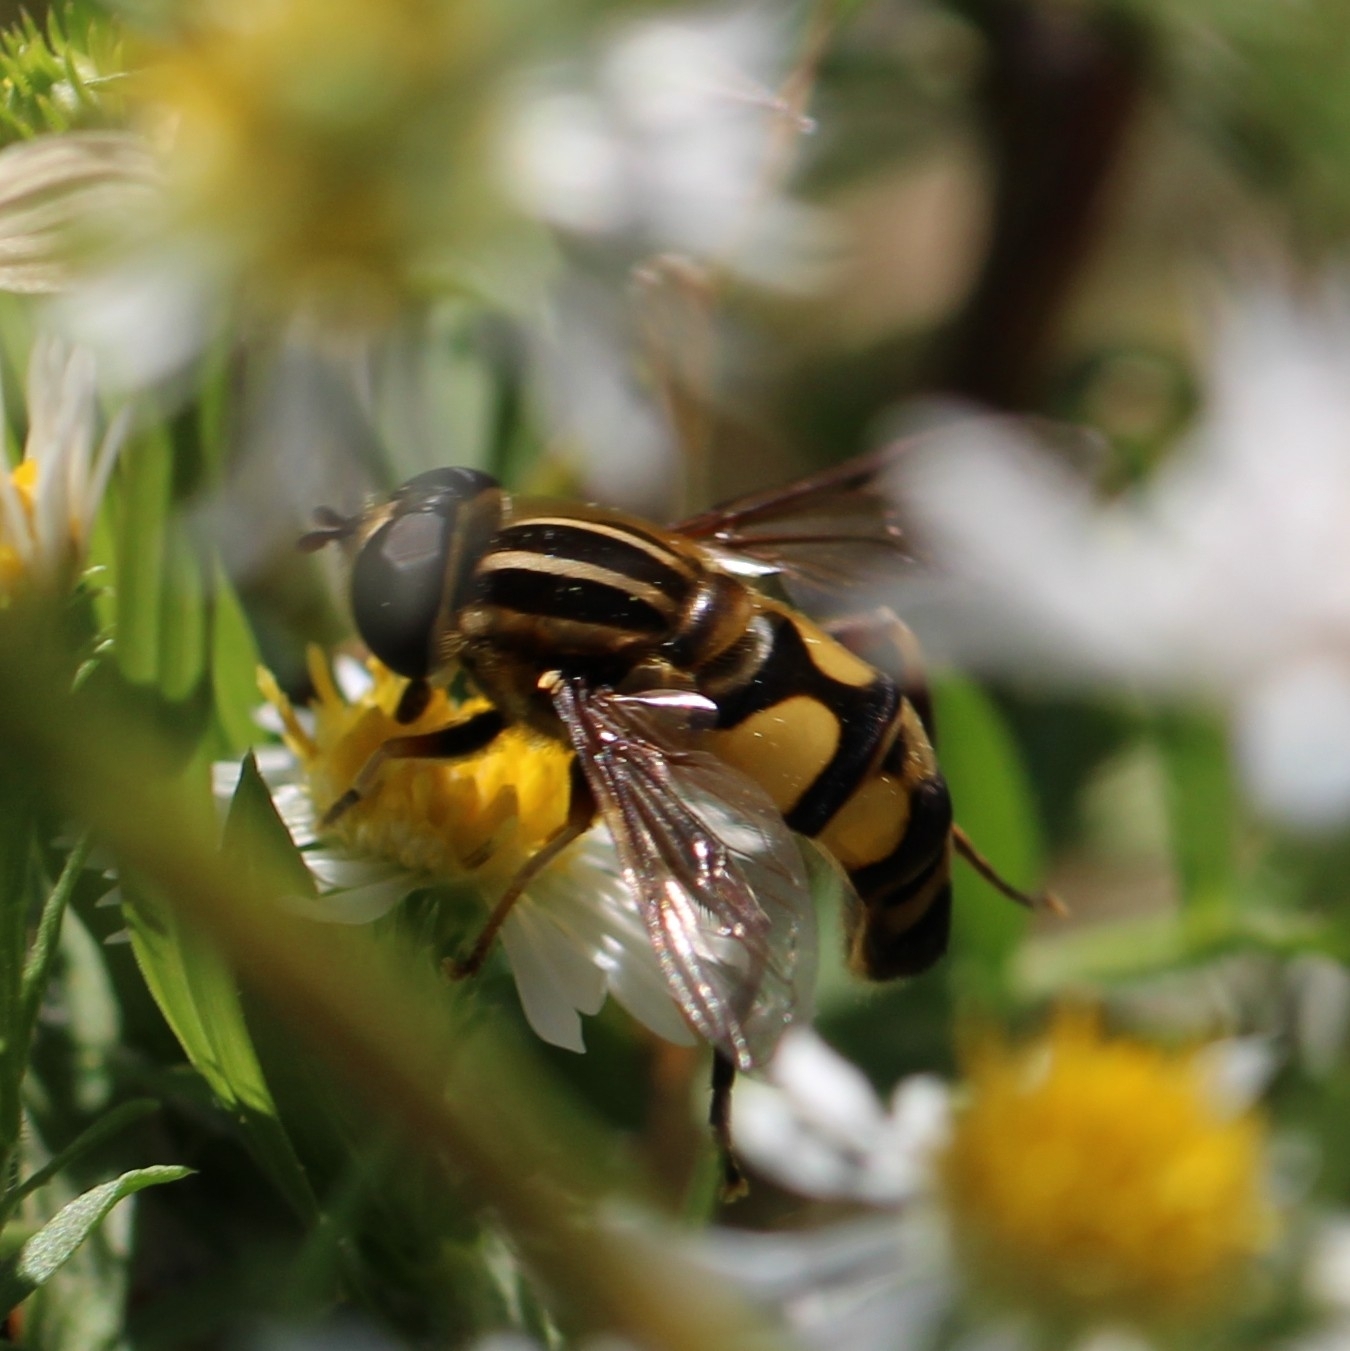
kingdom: Animalia
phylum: Arthropoda
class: Insecta
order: Diptera
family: Syrphidae
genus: Helophilus
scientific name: Helophilus fasciatus
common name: Narrow-headed marsh fly
